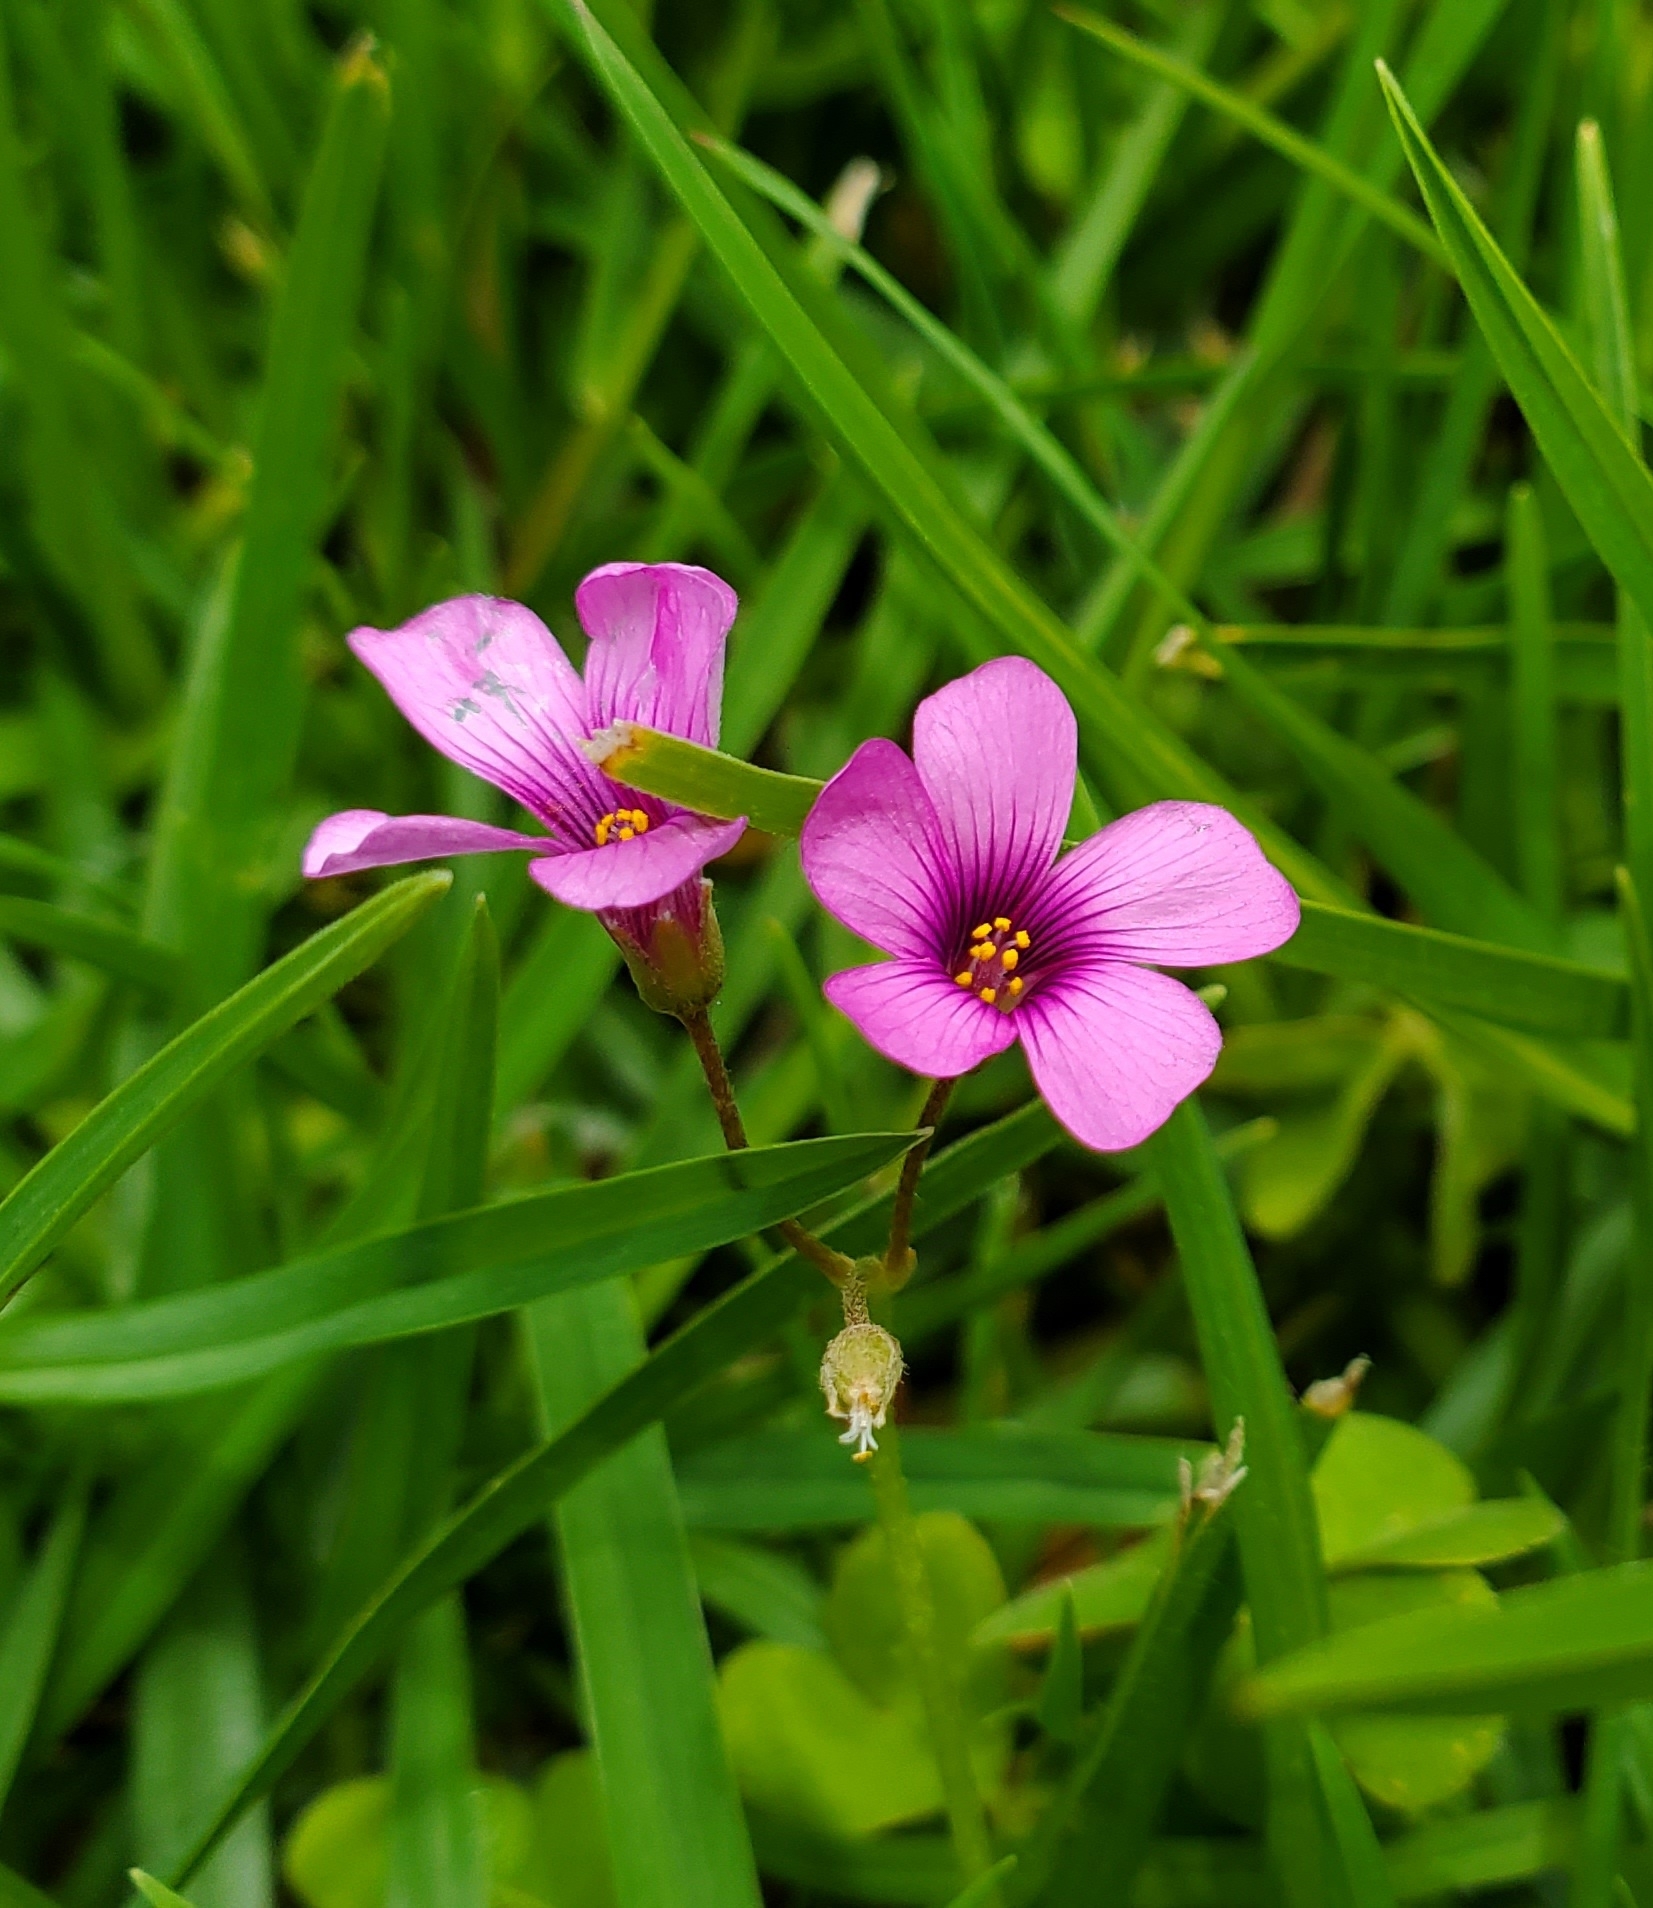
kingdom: Plantae
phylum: Tracheophyta
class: Magnoliopsida
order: Oxalidales
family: Oxalidaceae
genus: Oxalis
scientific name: Oxalis articulata
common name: Pink-sorrel
